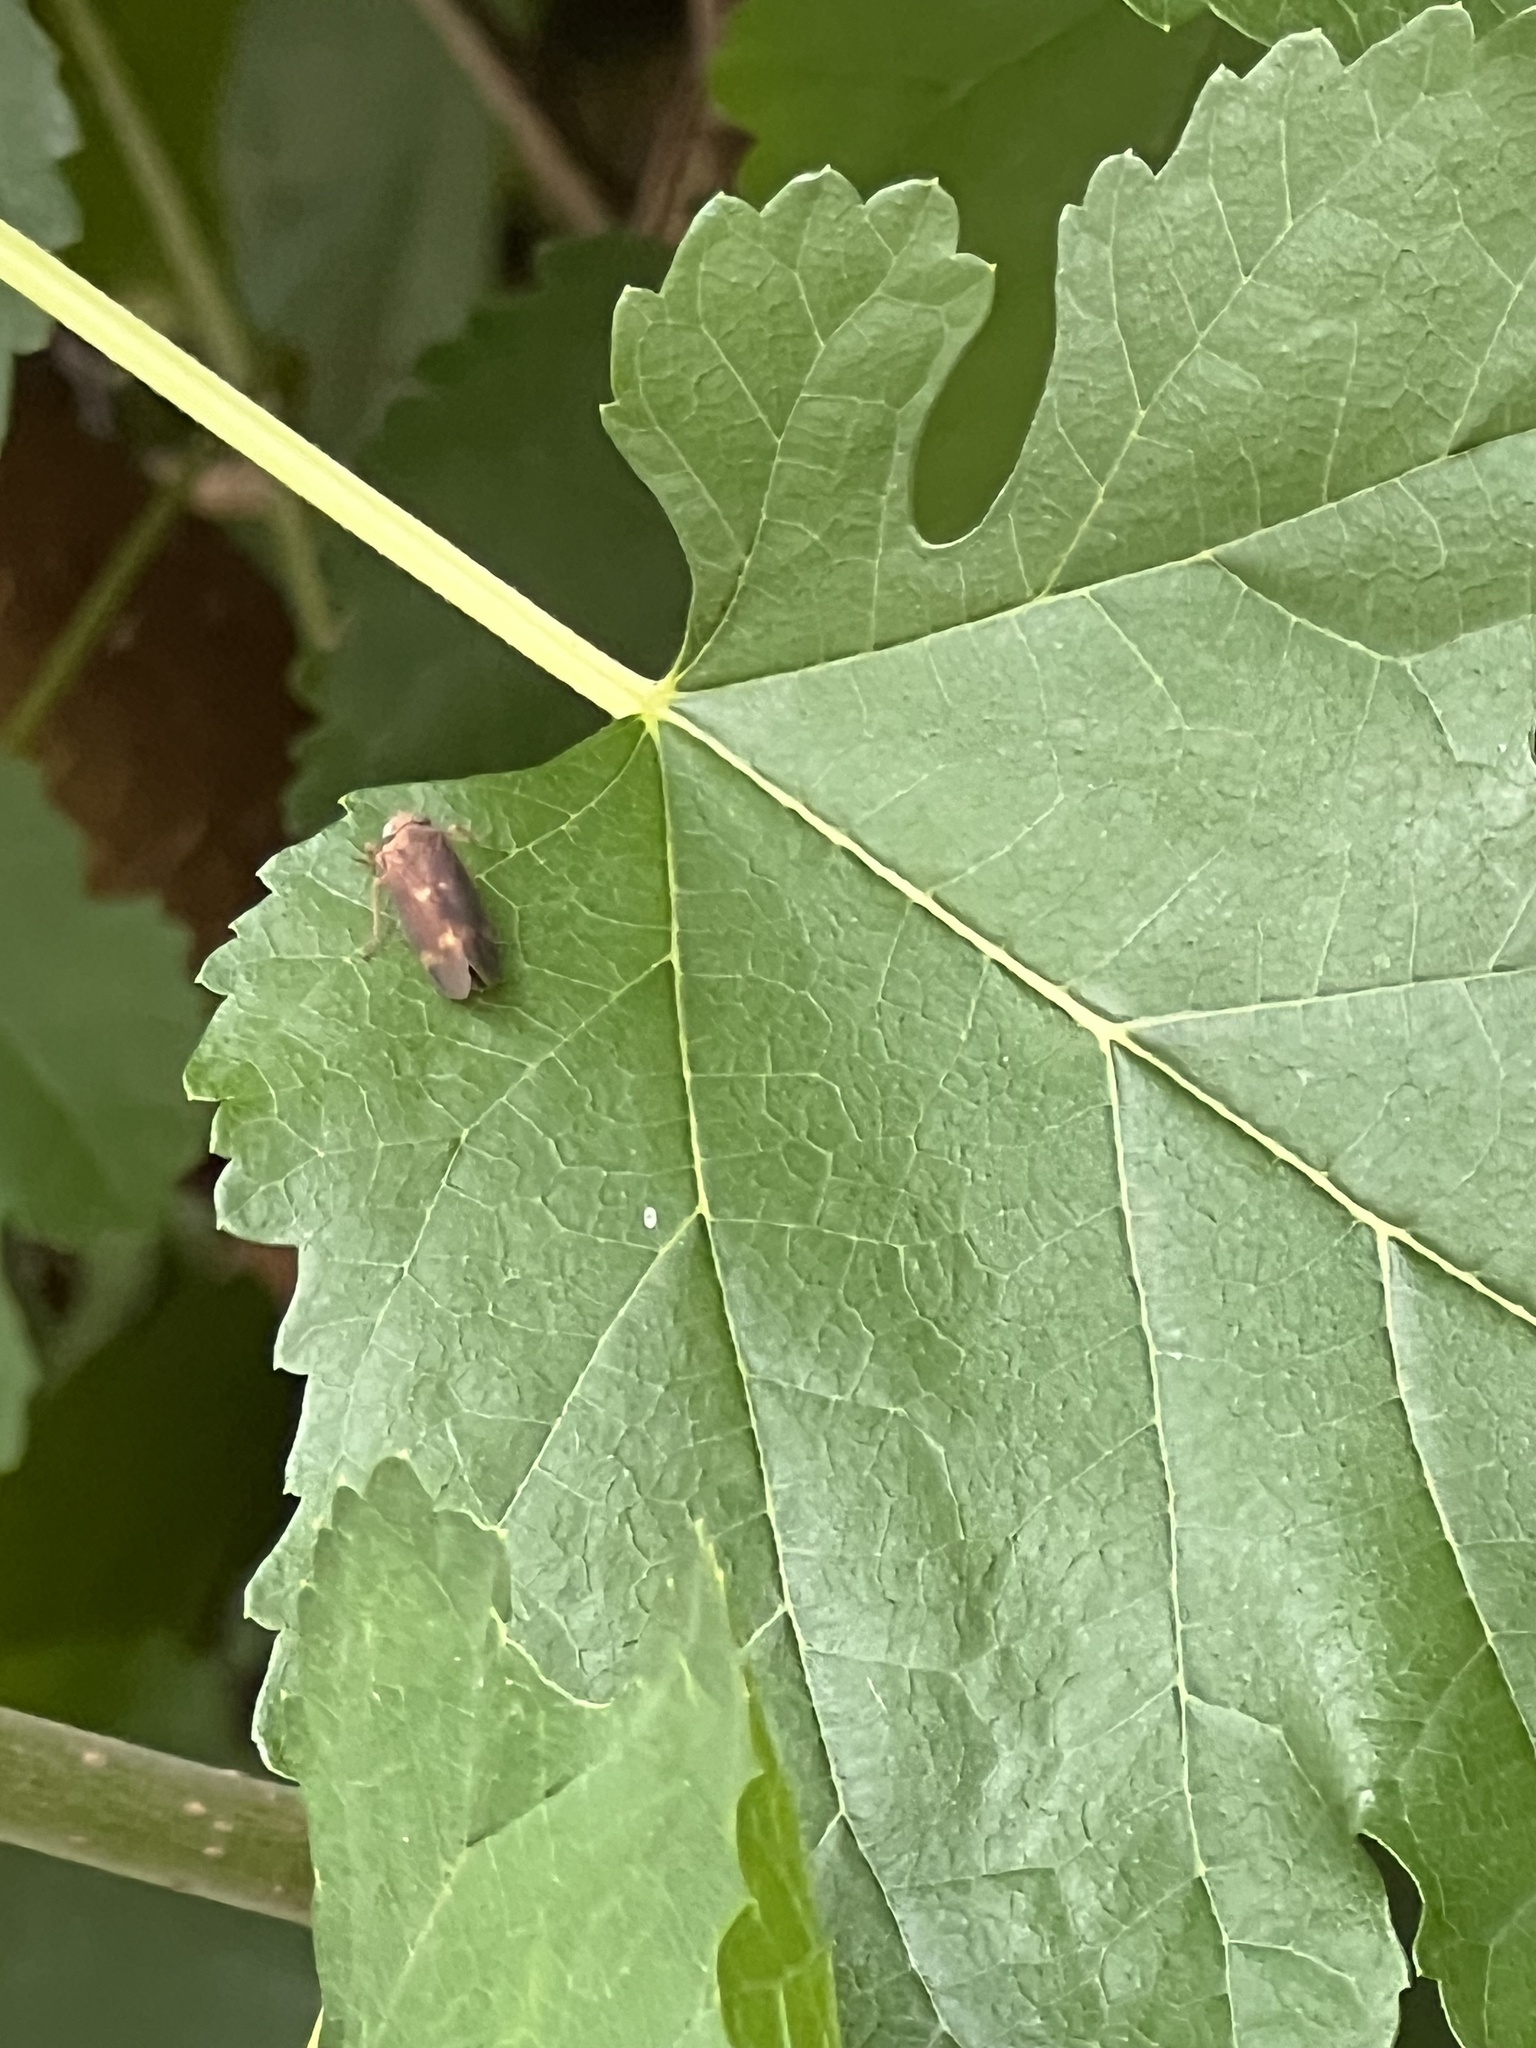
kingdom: Animalia
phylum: Arthropoda
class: Insecta
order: Hemiptera
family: Cicadellidae
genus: Jikradia
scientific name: Jikradia olitoria
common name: Coppery leafhopper
